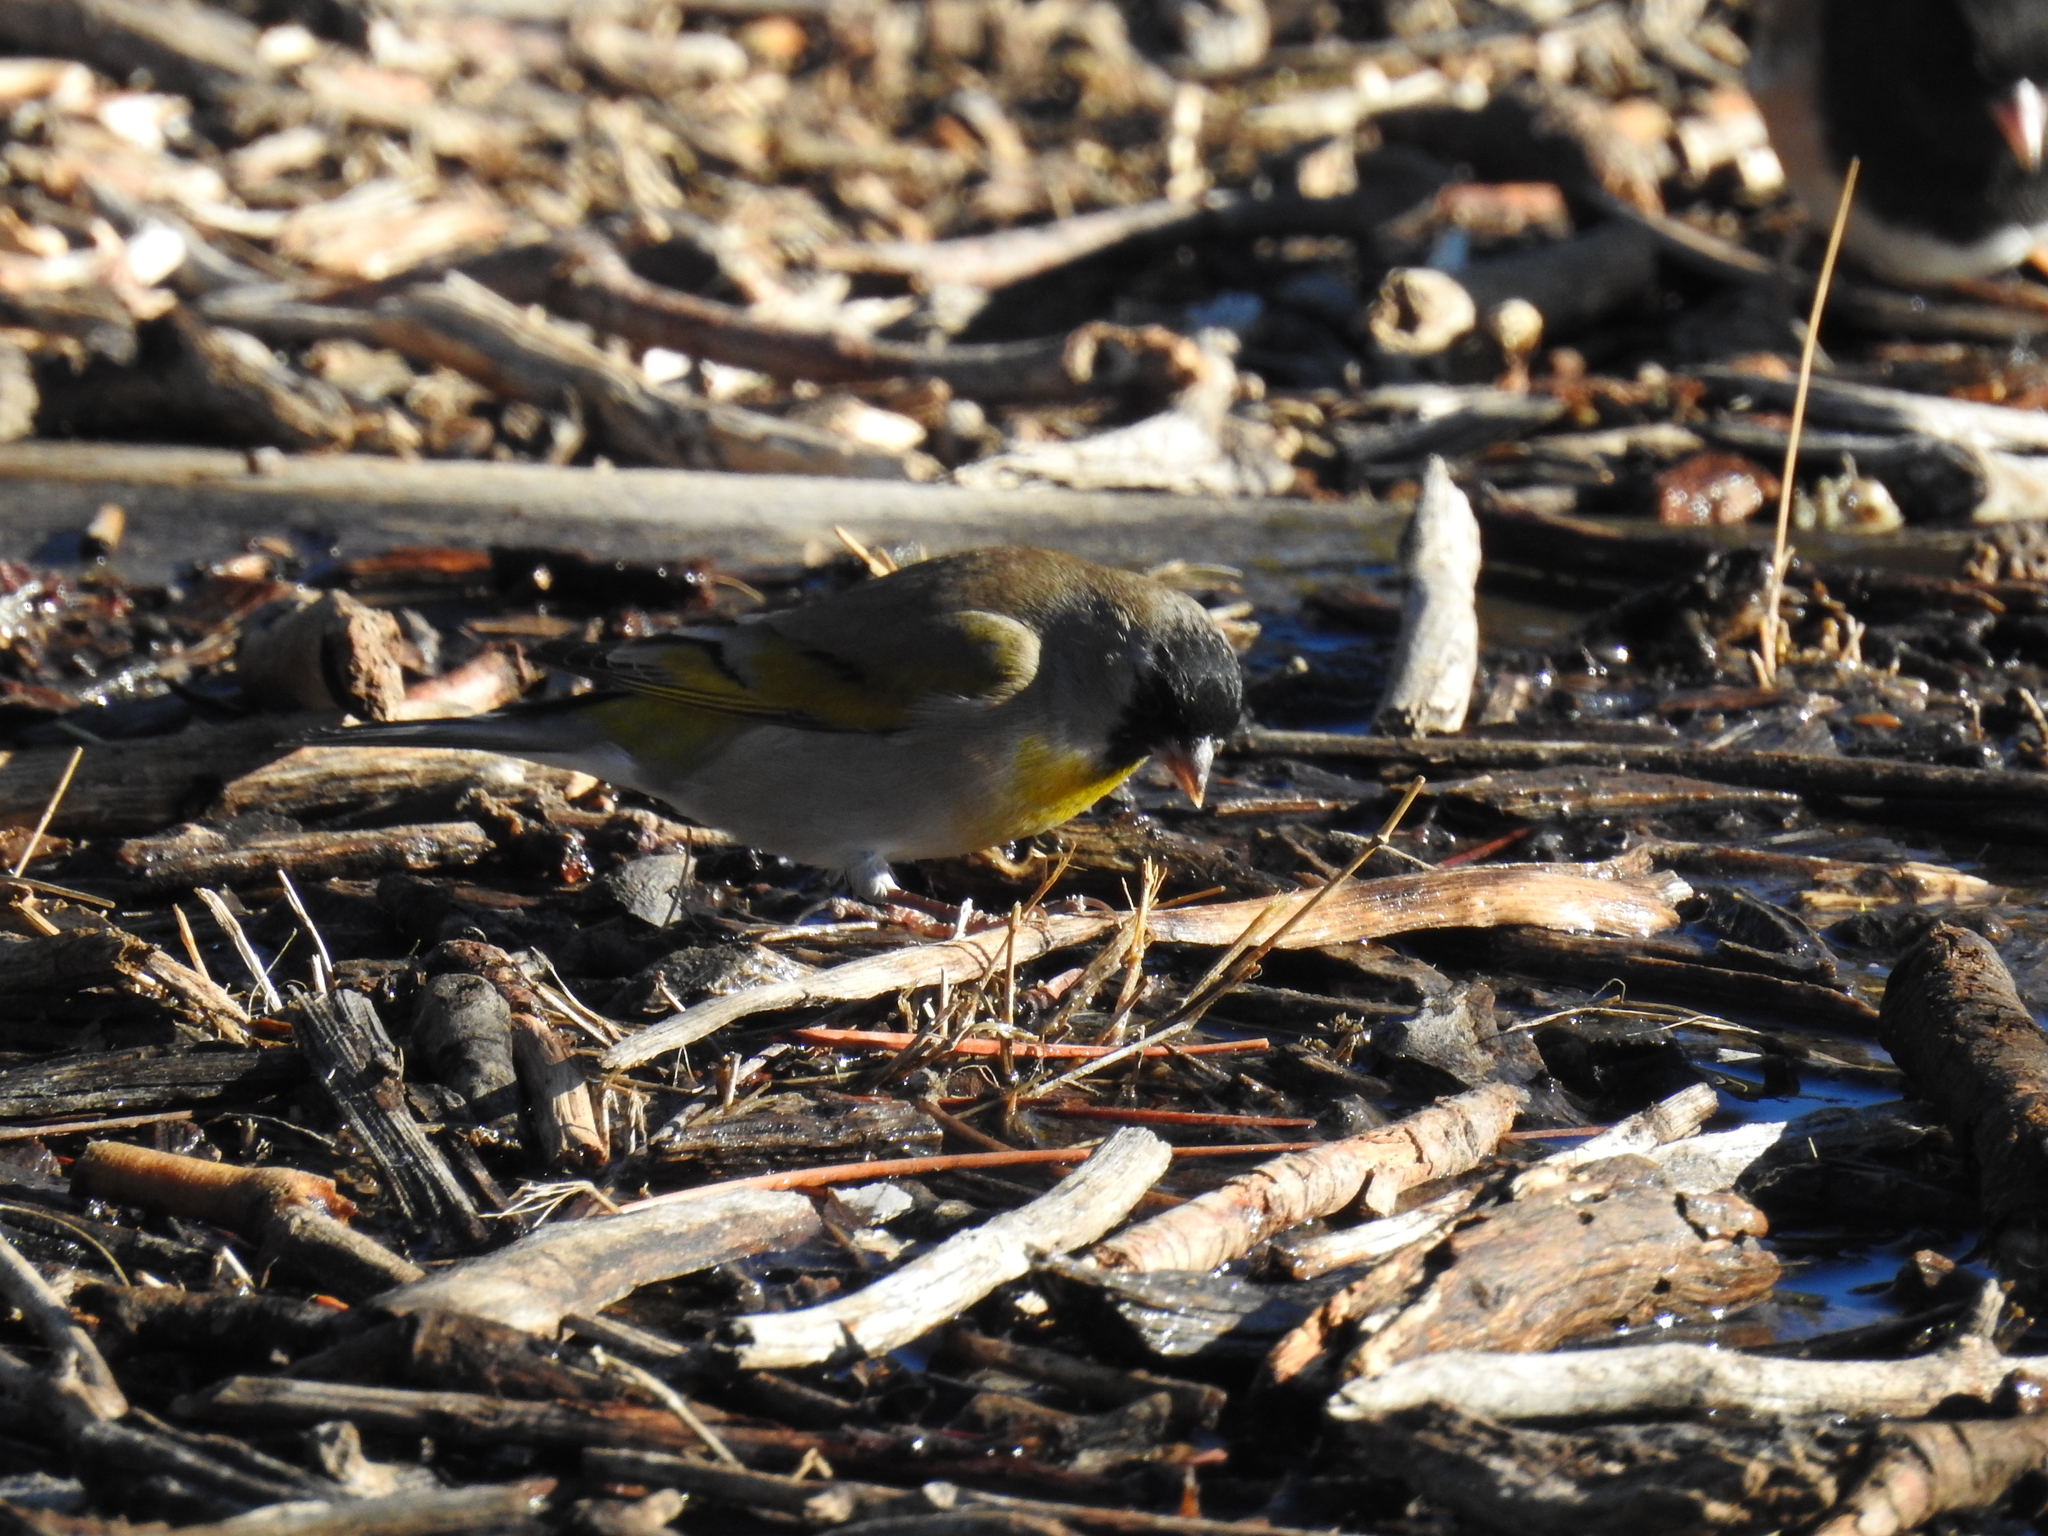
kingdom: Animalia
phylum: Chordata
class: Aves
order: Passeriformes
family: Fringillidae
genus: Spinus
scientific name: Spinus lawrencei
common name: Lawrence's goldfinch
